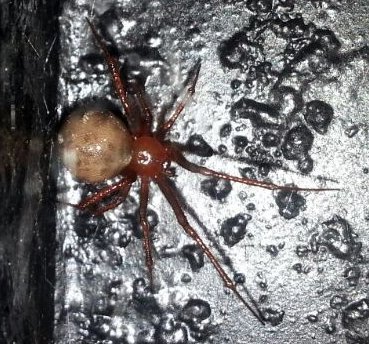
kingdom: Animalia
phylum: Arthropoda
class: Arachnida
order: Araneae
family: Theridiidae
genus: Nesticodes
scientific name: Nesticodes rufipes
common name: Cobweb spiders
